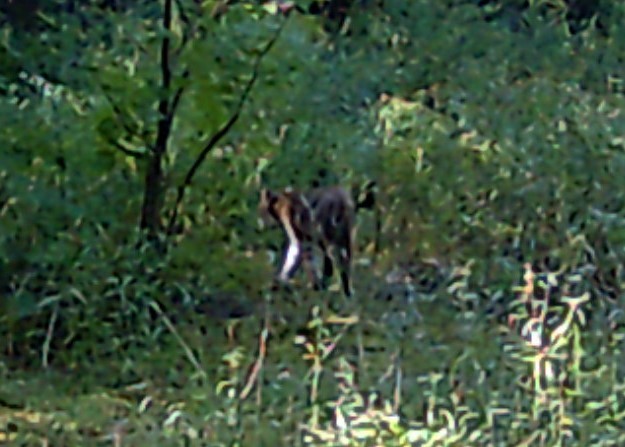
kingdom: Animalia
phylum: Chordata
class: Mammalia
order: Carnivora
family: Felidae
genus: Lynx
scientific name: Lynx rufus
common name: Bobcat
